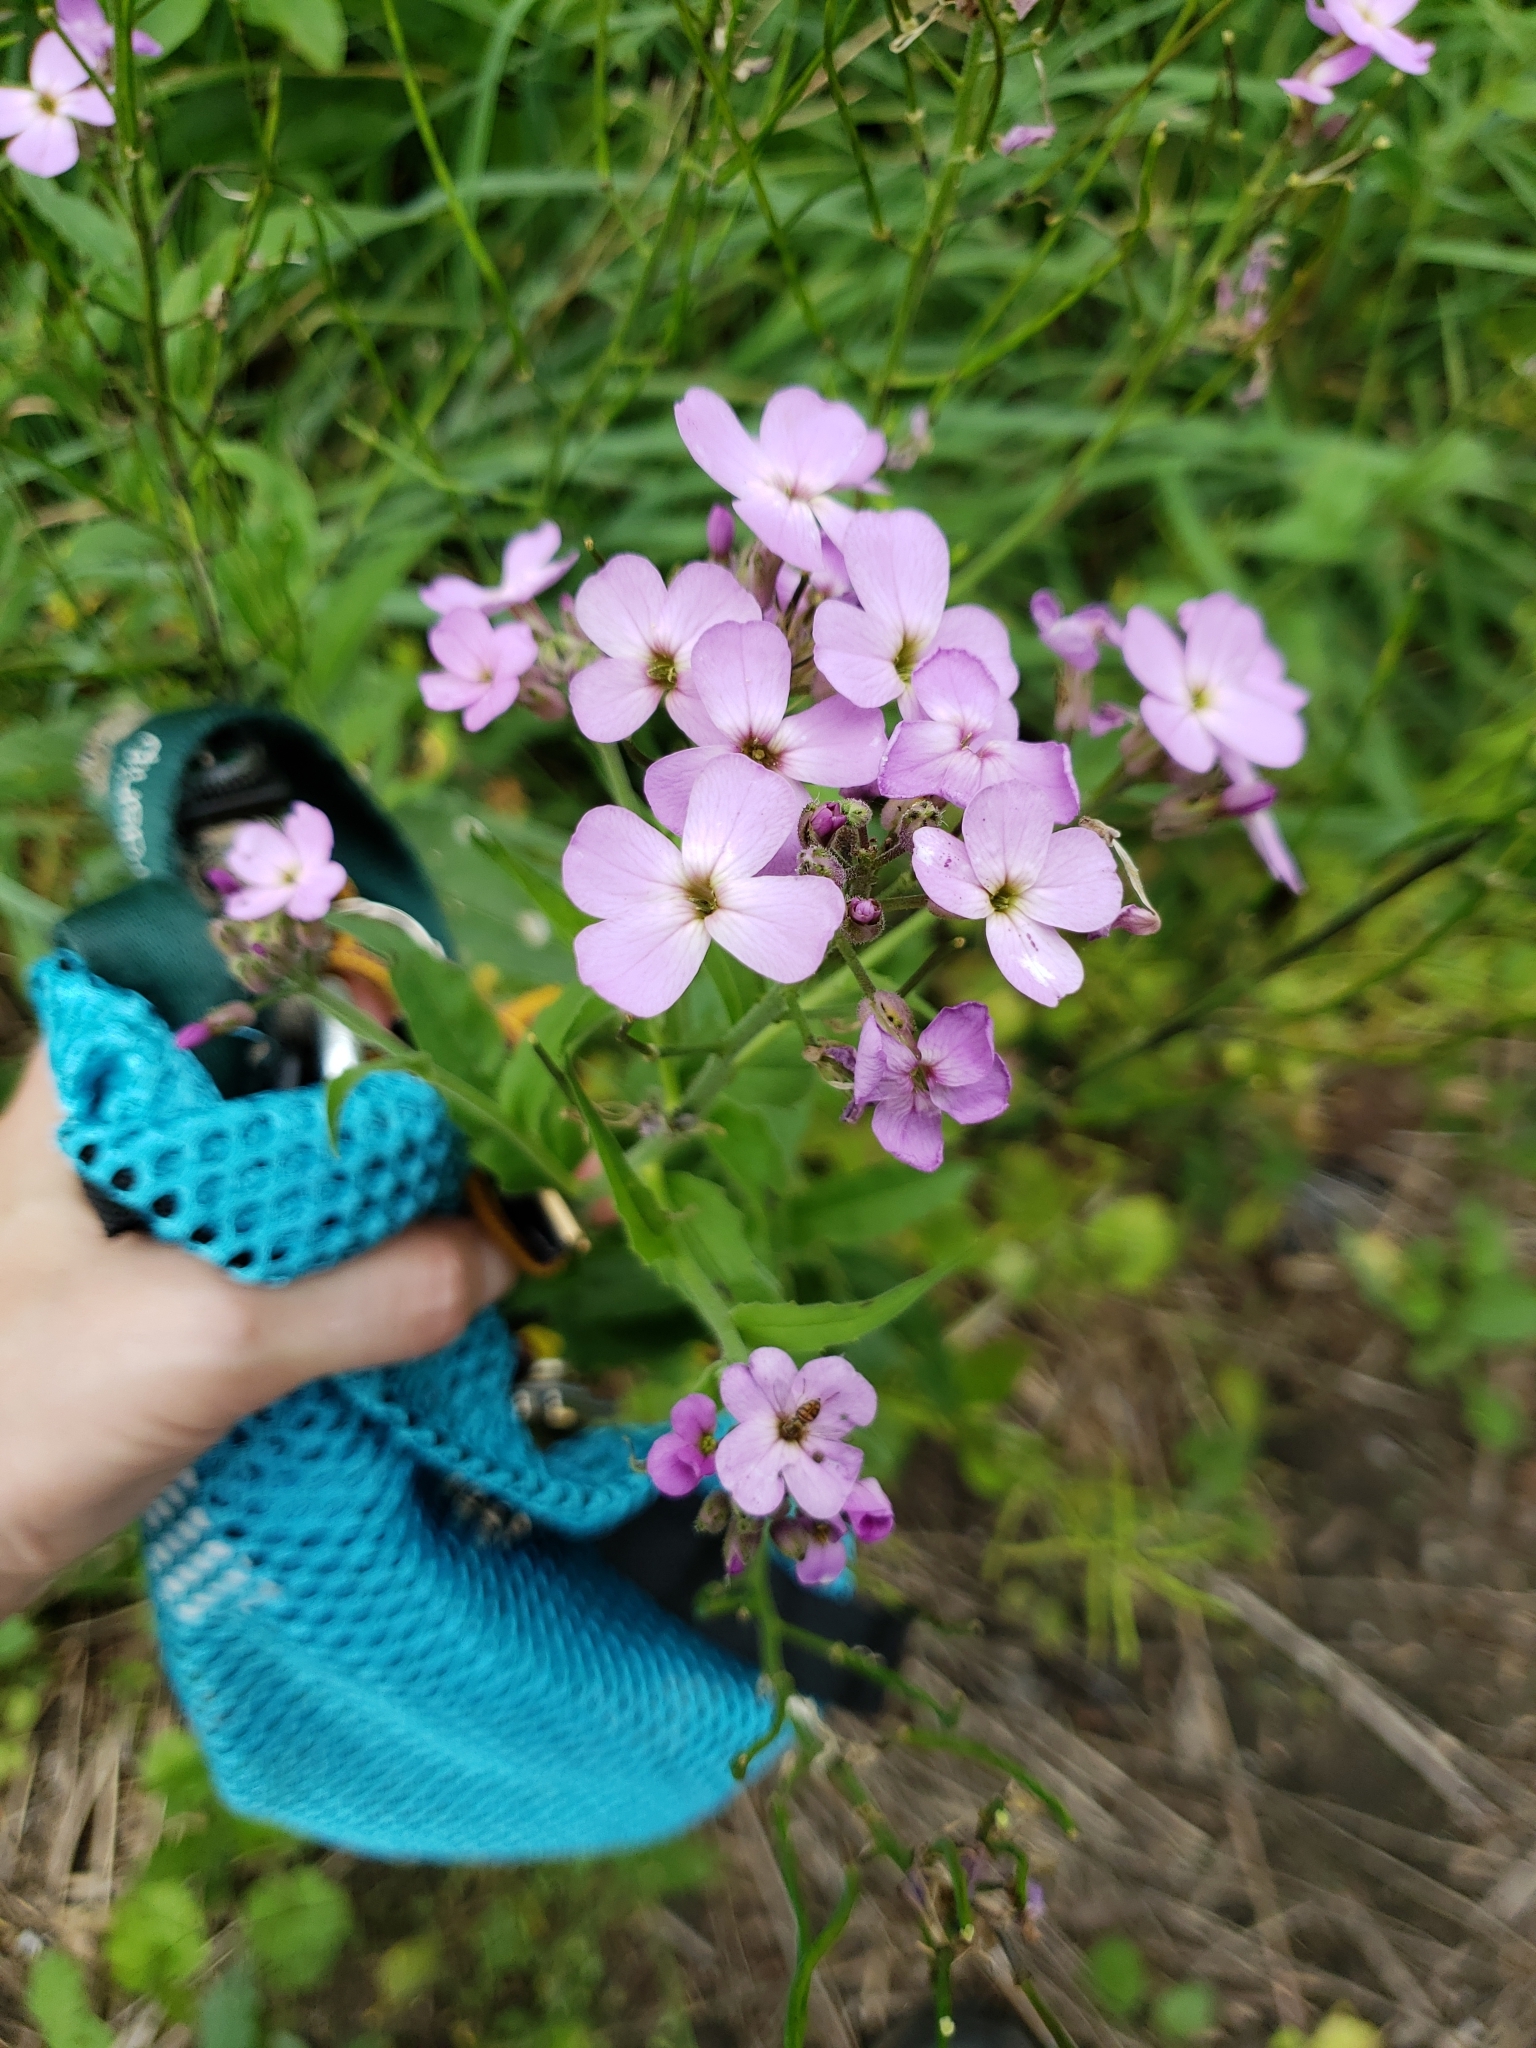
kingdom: Plantae
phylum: Tracheophyta
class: Magnoliopsida
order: Brassicales
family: Brassicaceae
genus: Hesperis
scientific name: Hesperis matronalis
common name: Dame's-violet
